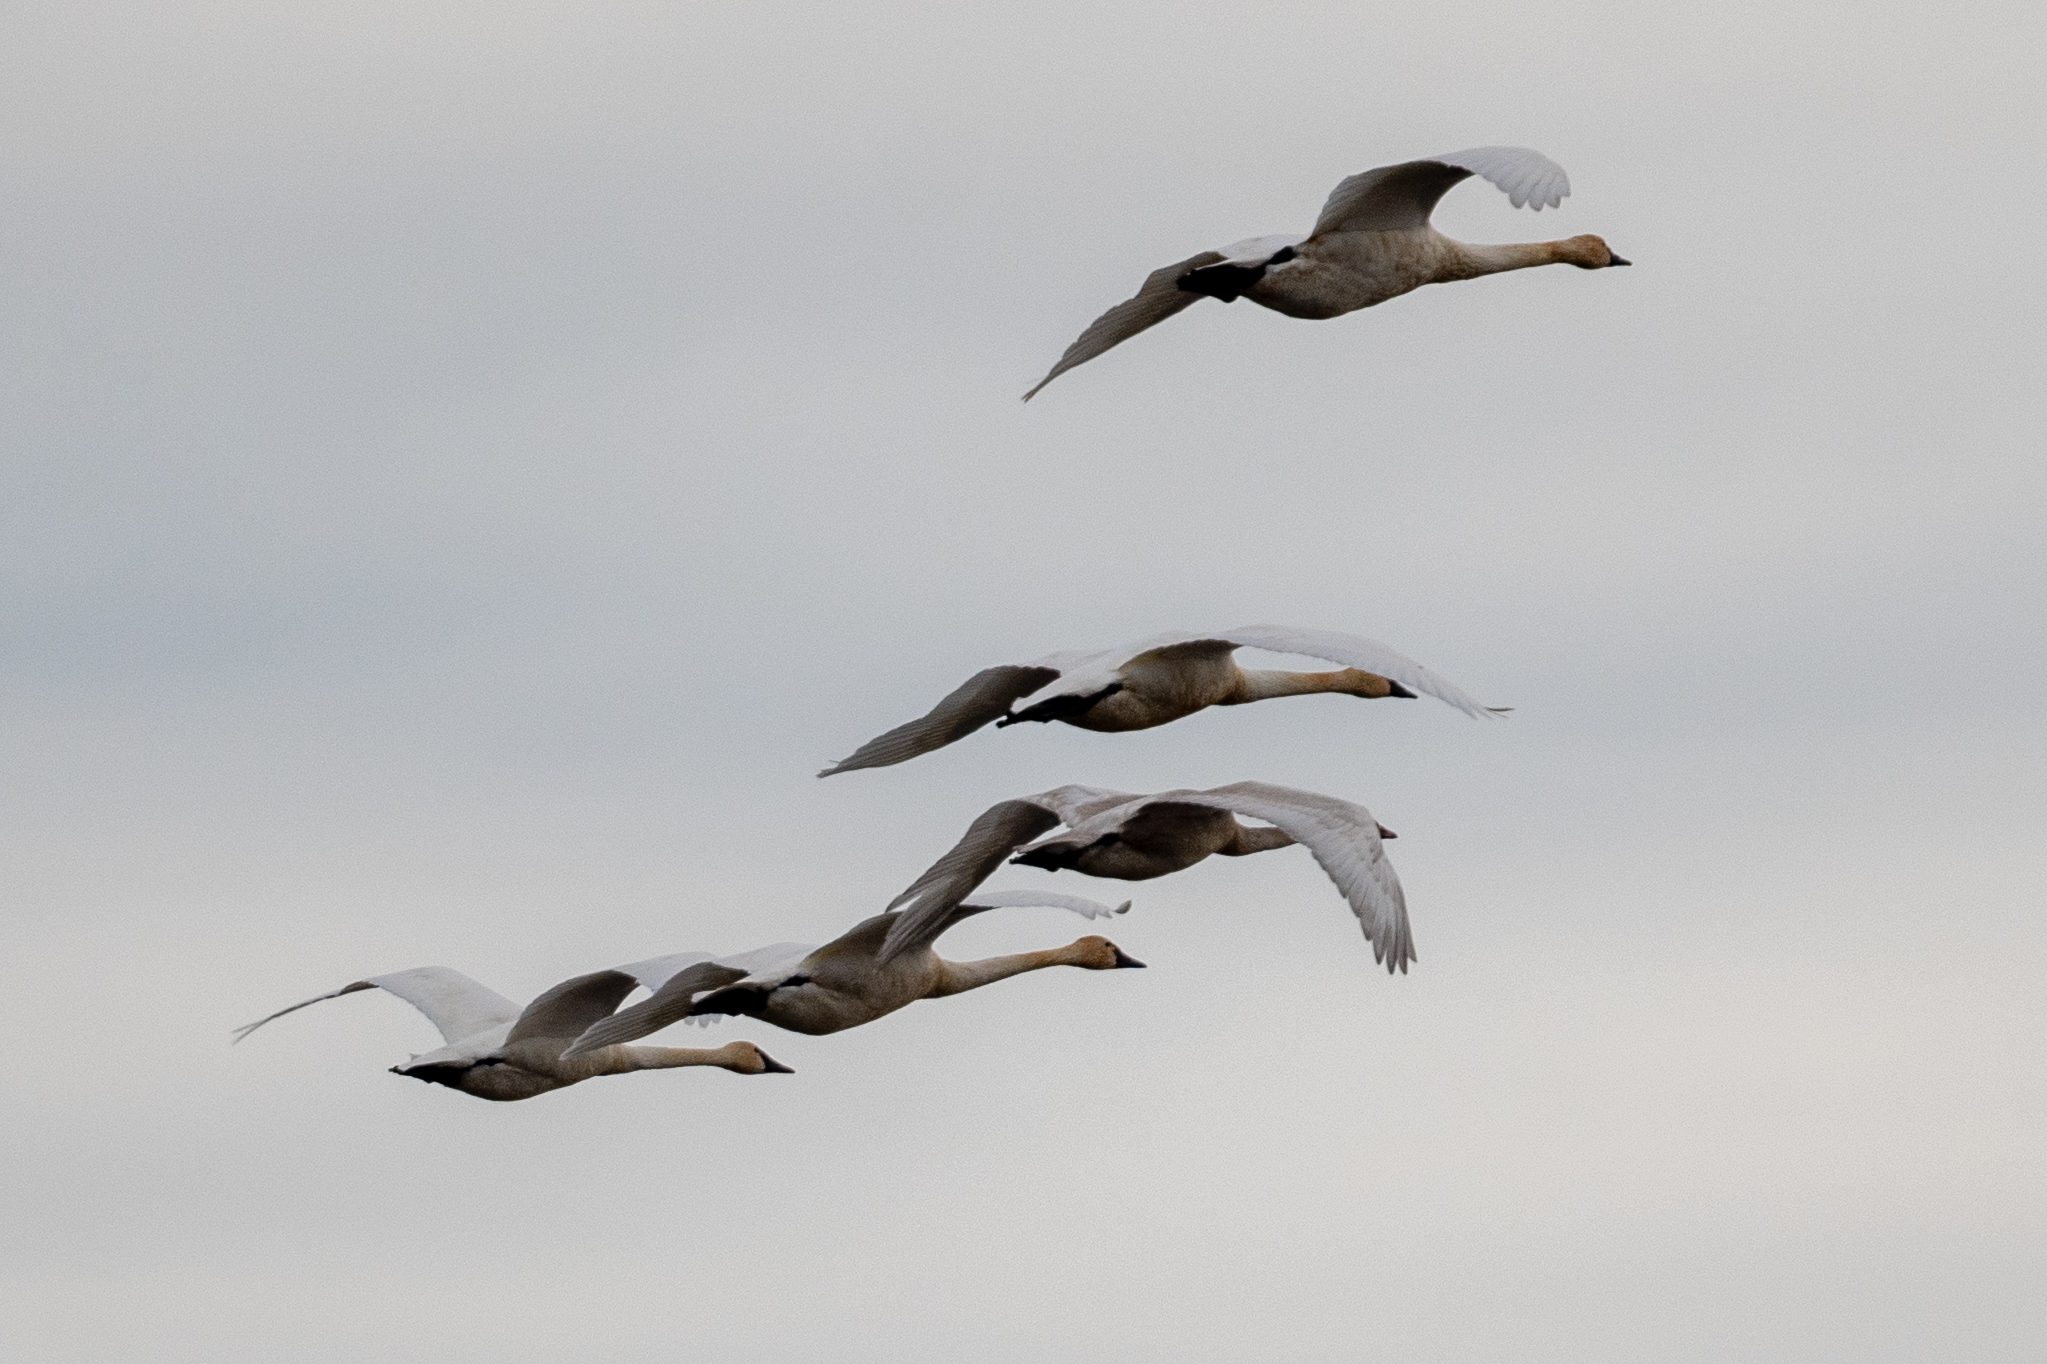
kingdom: Animalia
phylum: Chordata
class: Aves
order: Anseriformes
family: Anatidae
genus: Cygnus
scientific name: Cygnus columbianus
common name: Tundra swan
